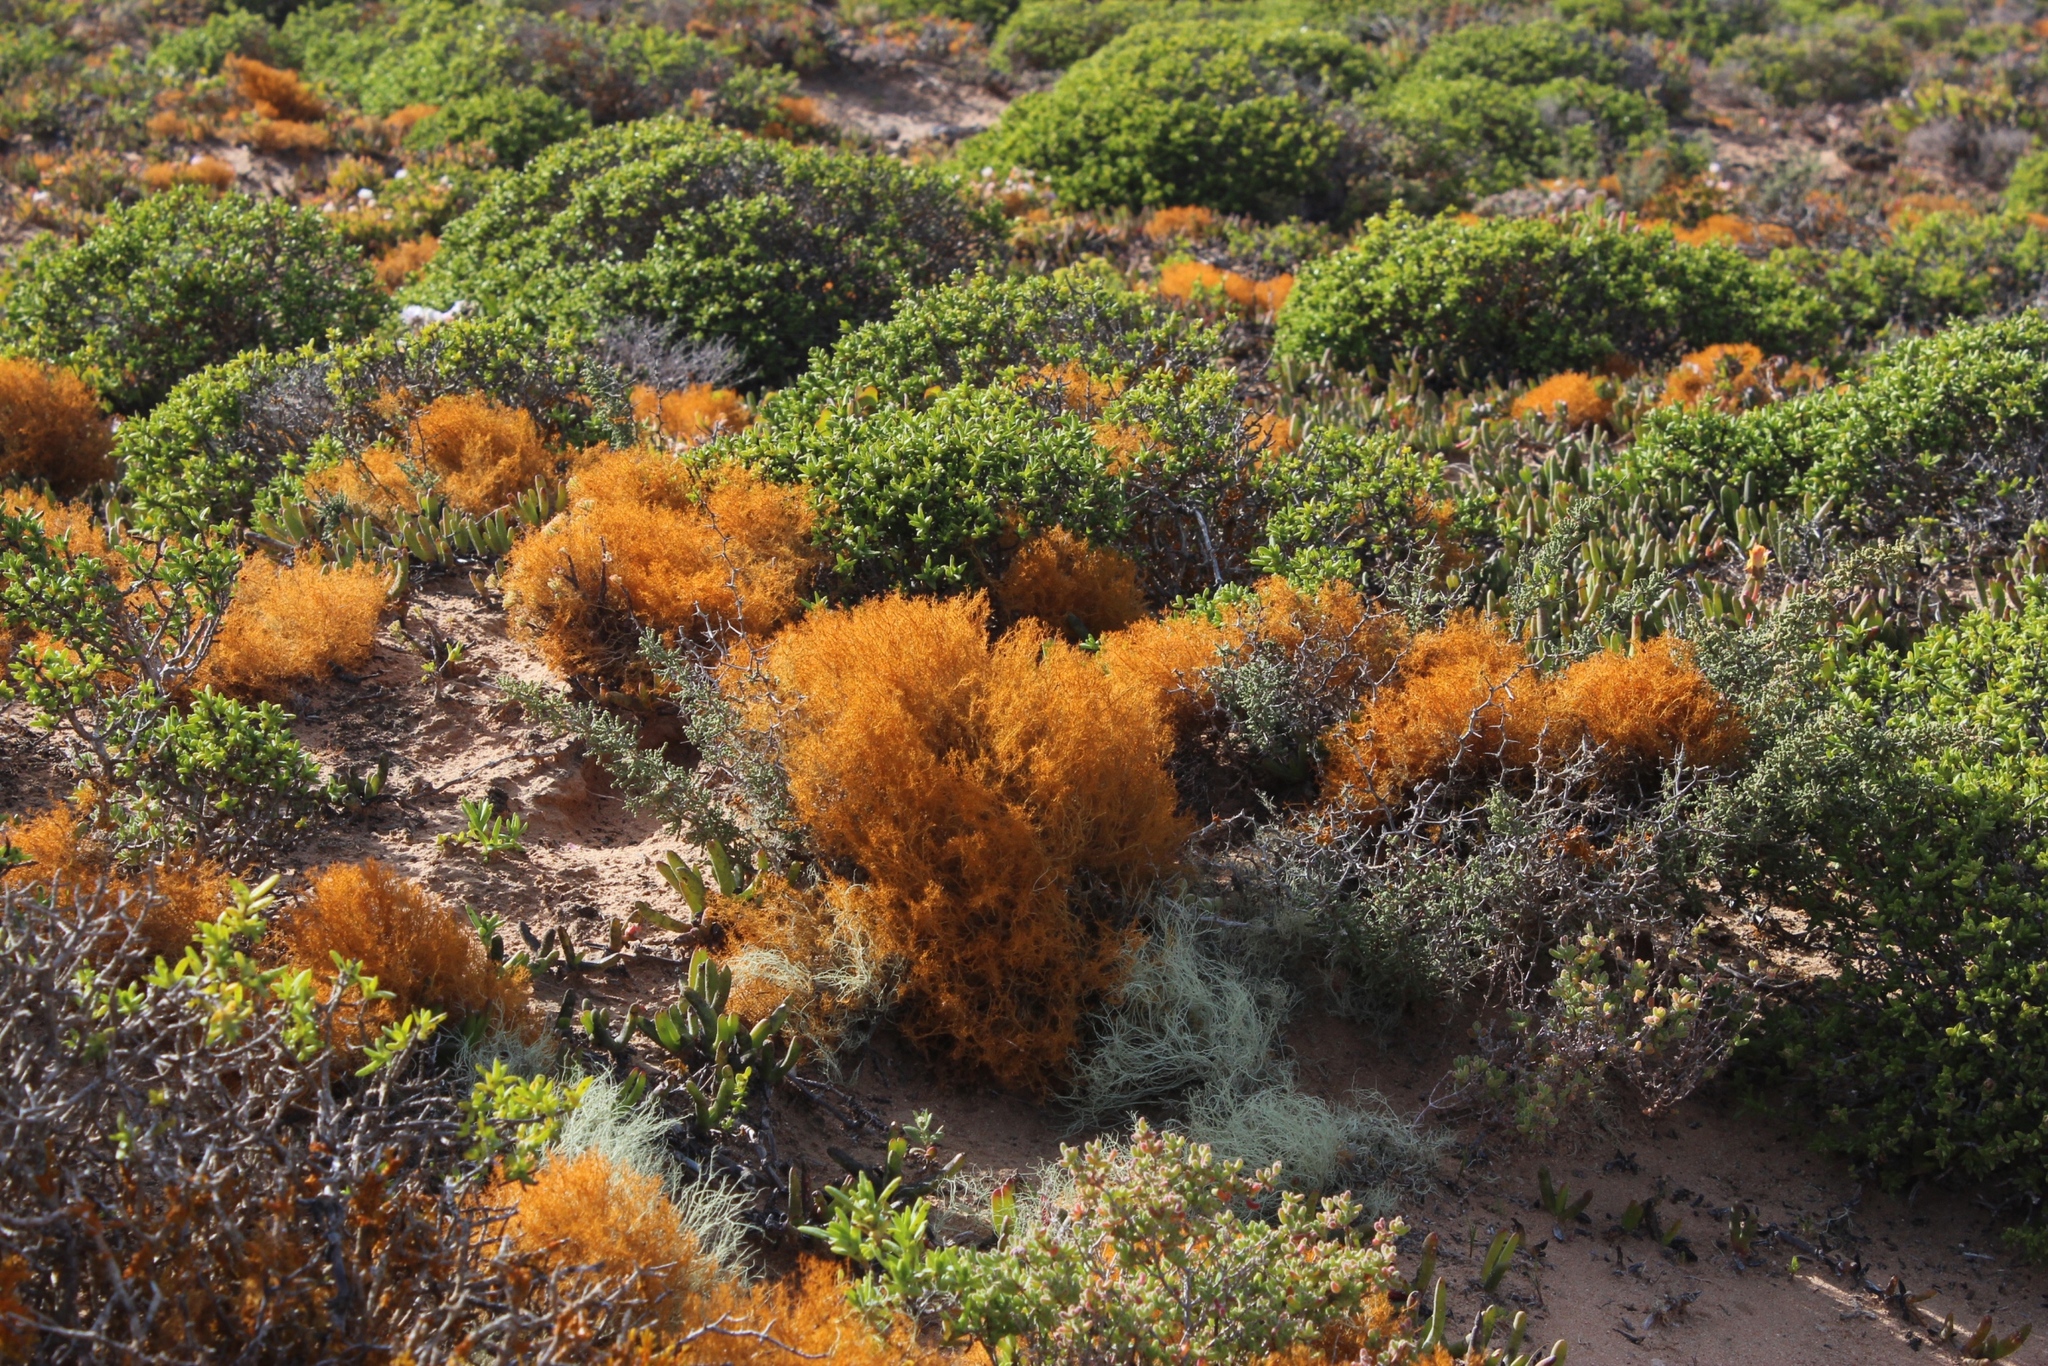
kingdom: Fungi
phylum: Ascomycota
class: Lecanoromycetes
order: Teloschistales
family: Teloschistaceae
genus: Teloschistes
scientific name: Teloschistes capensis
